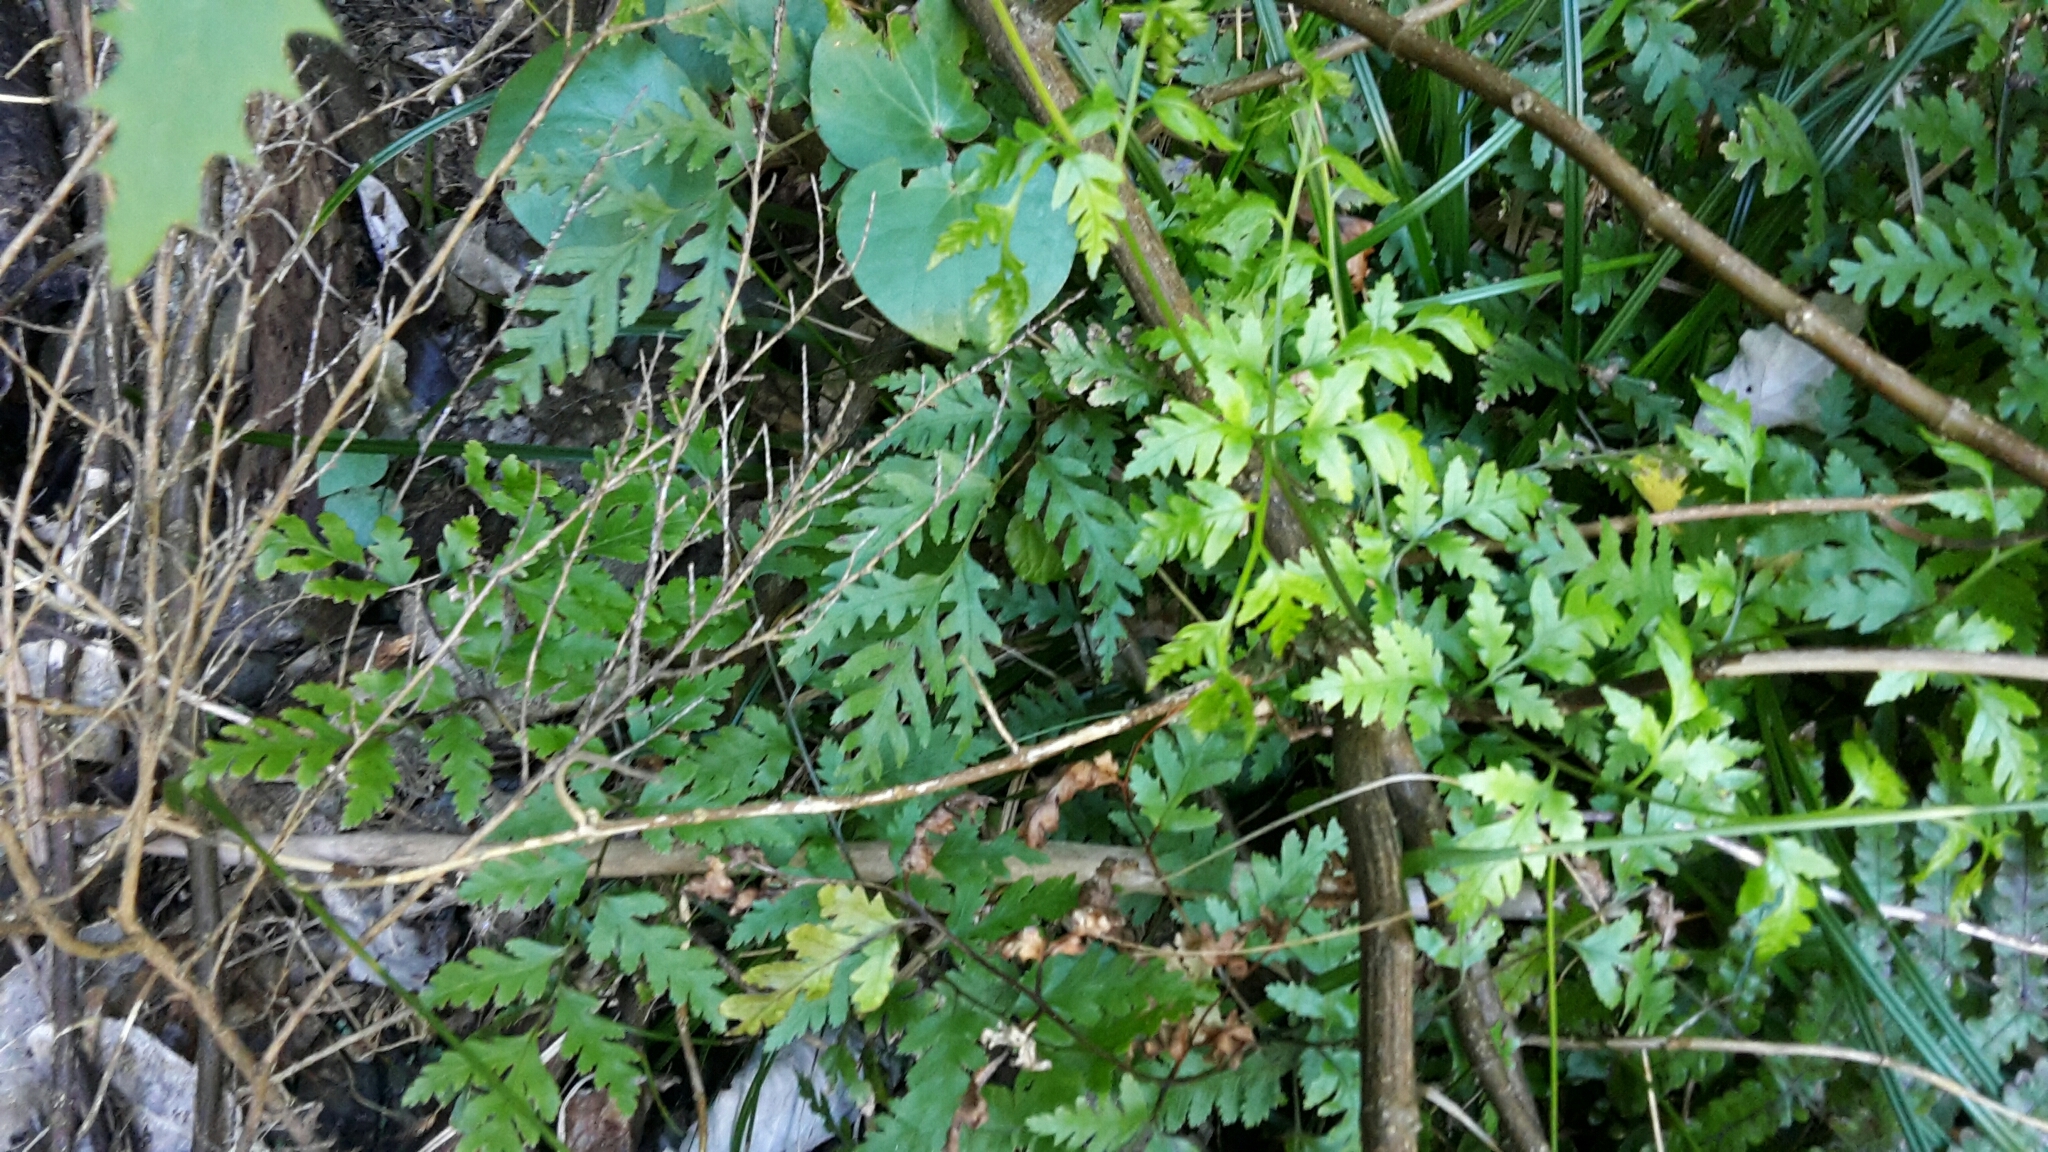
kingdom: Plantae
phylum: Tracheophyta
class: Polypodiopsida
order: Polypodiales
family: Pteridaceae
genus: Pteris
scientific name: Pteris macilenta
